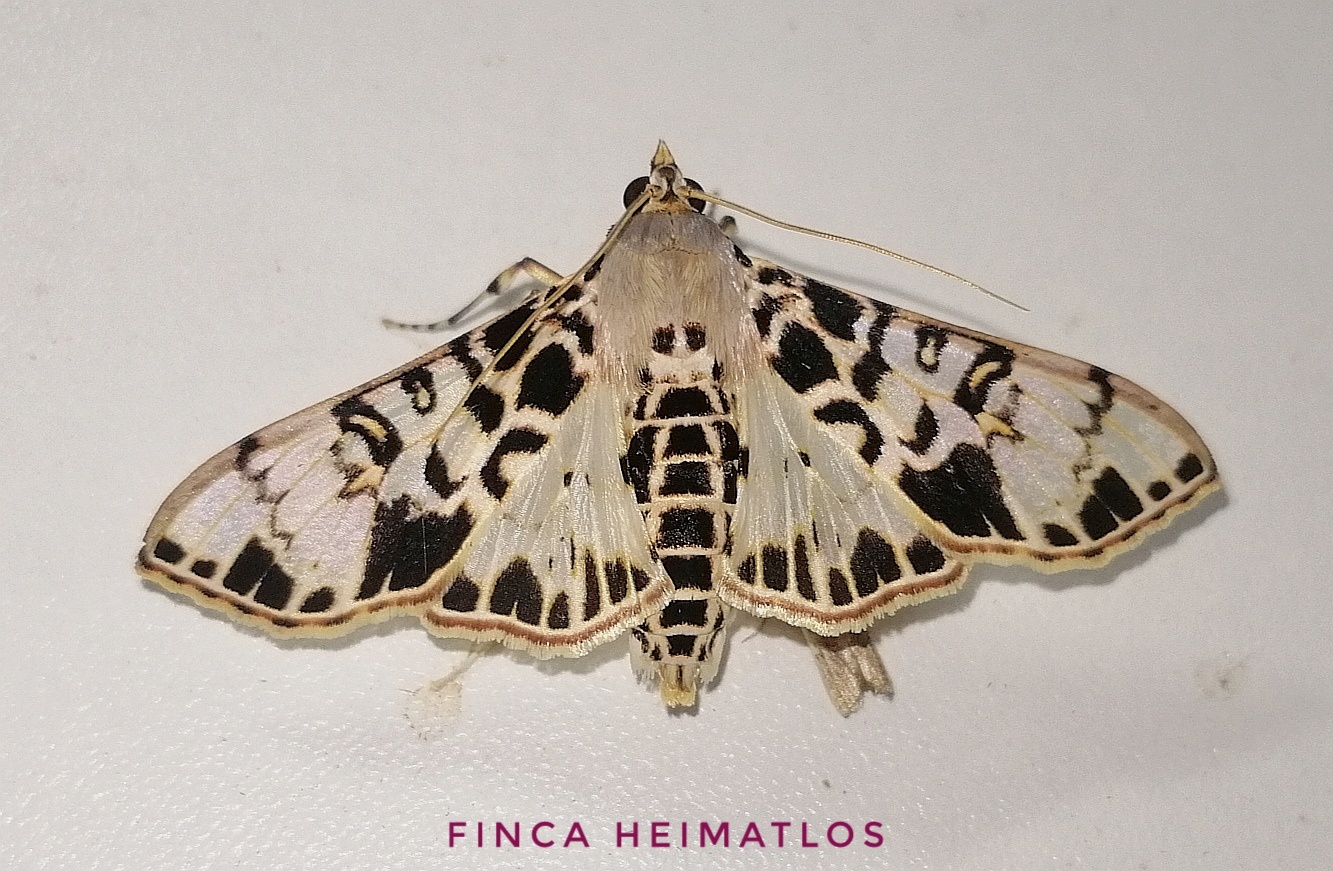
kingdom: Animalia
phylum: Arthropoda
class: Insecta
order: Lepidoptera
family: Crambidae
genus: Azochis
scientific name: Azochis pieralis
